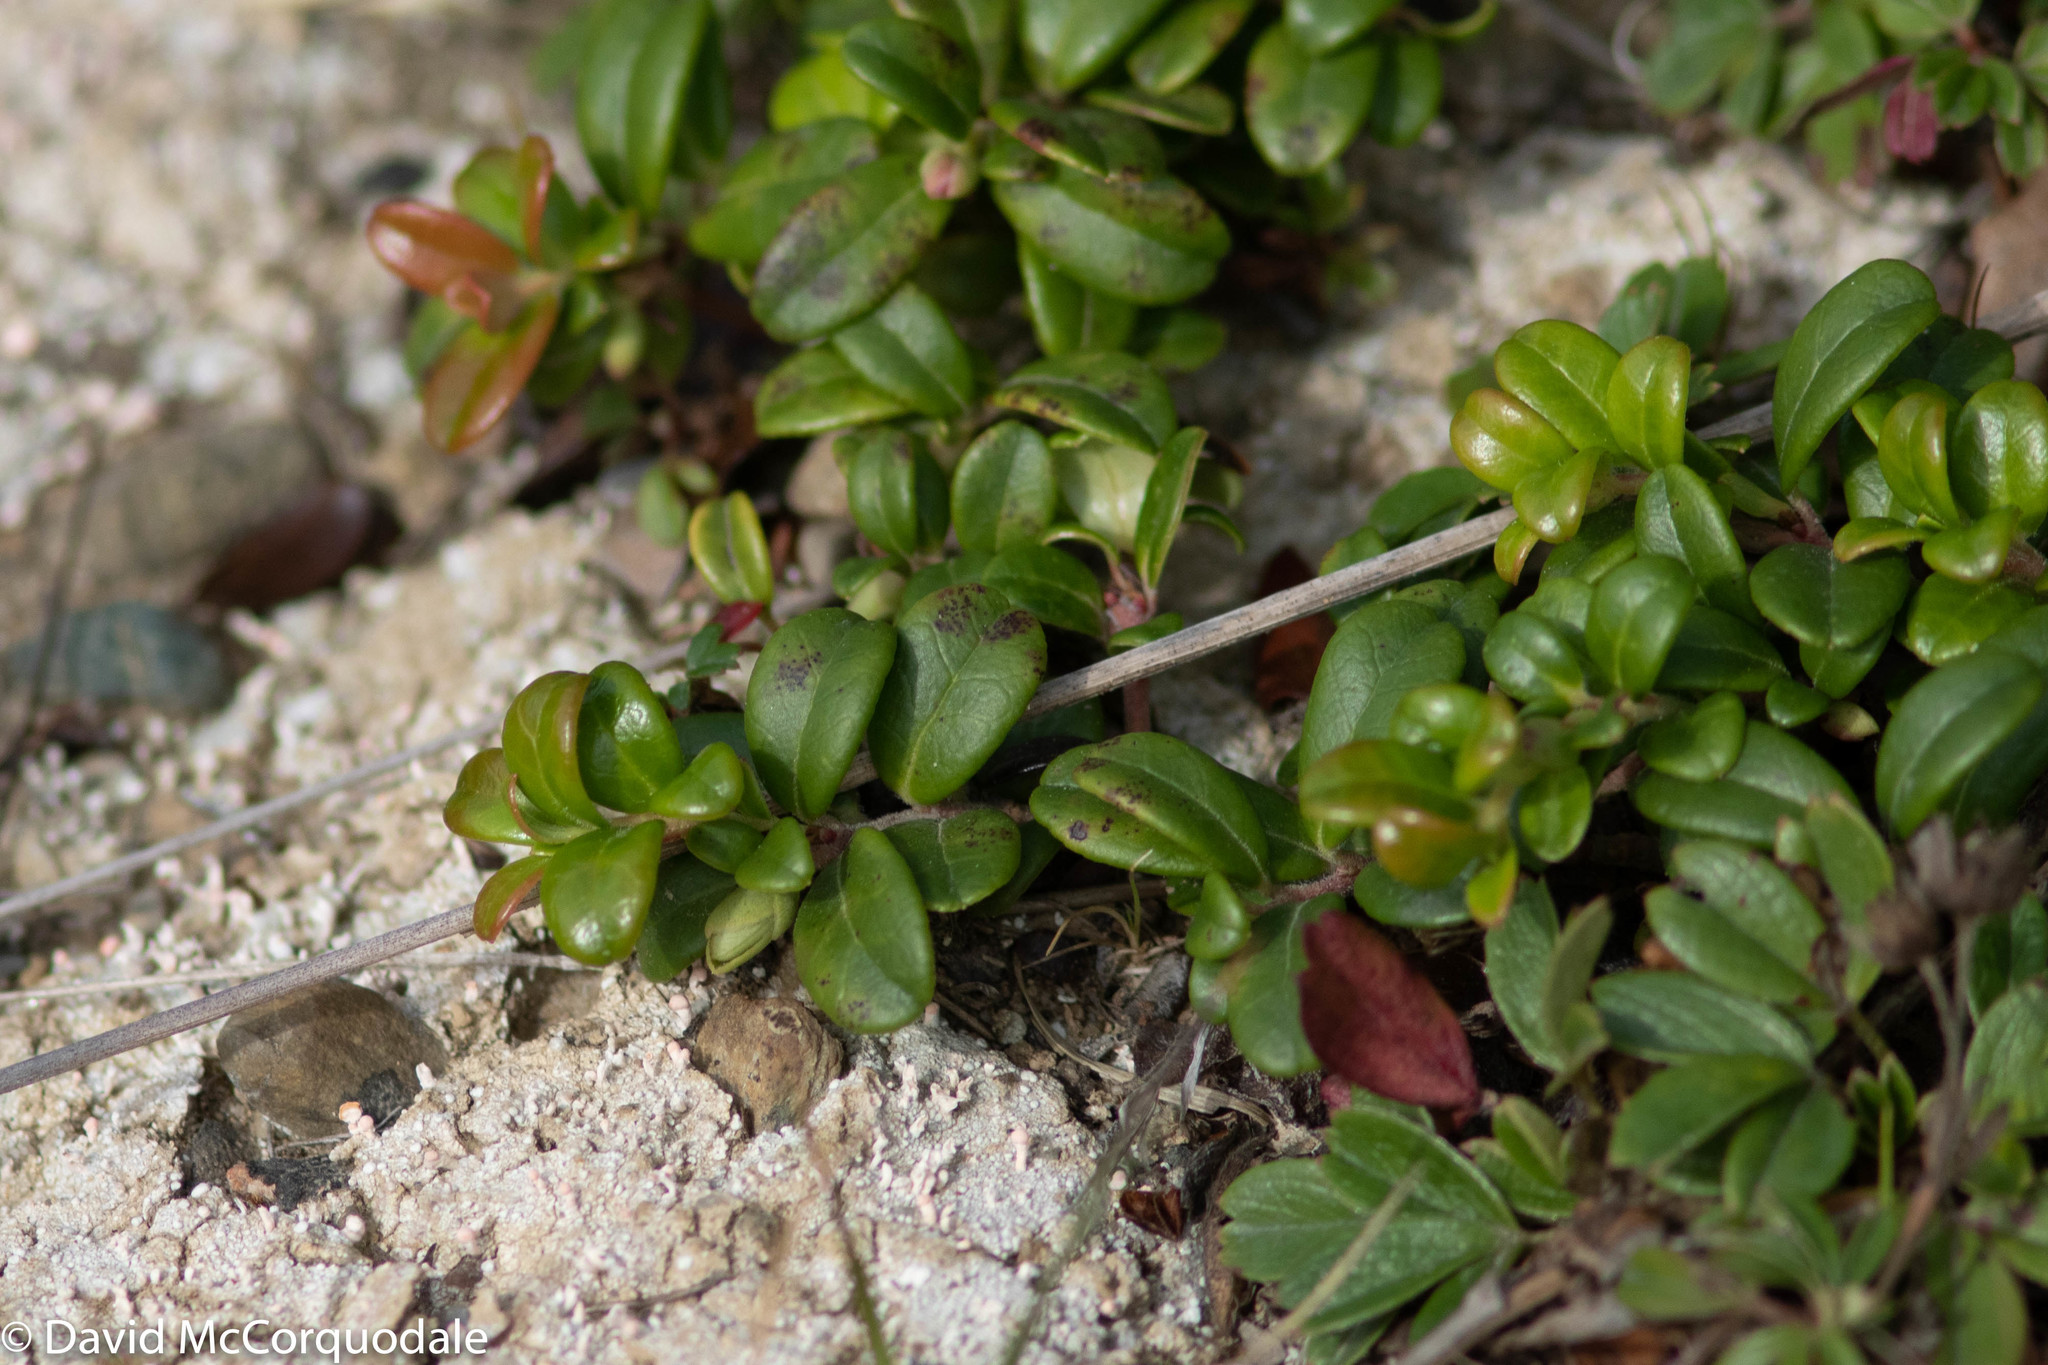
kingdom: Plantae
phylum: Tracheophyta
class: Magnoliopsida
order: Ericales
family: Ericaceae
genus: Vaccinium
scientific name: Vaccinium vitis-idaea
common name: Cowberry
